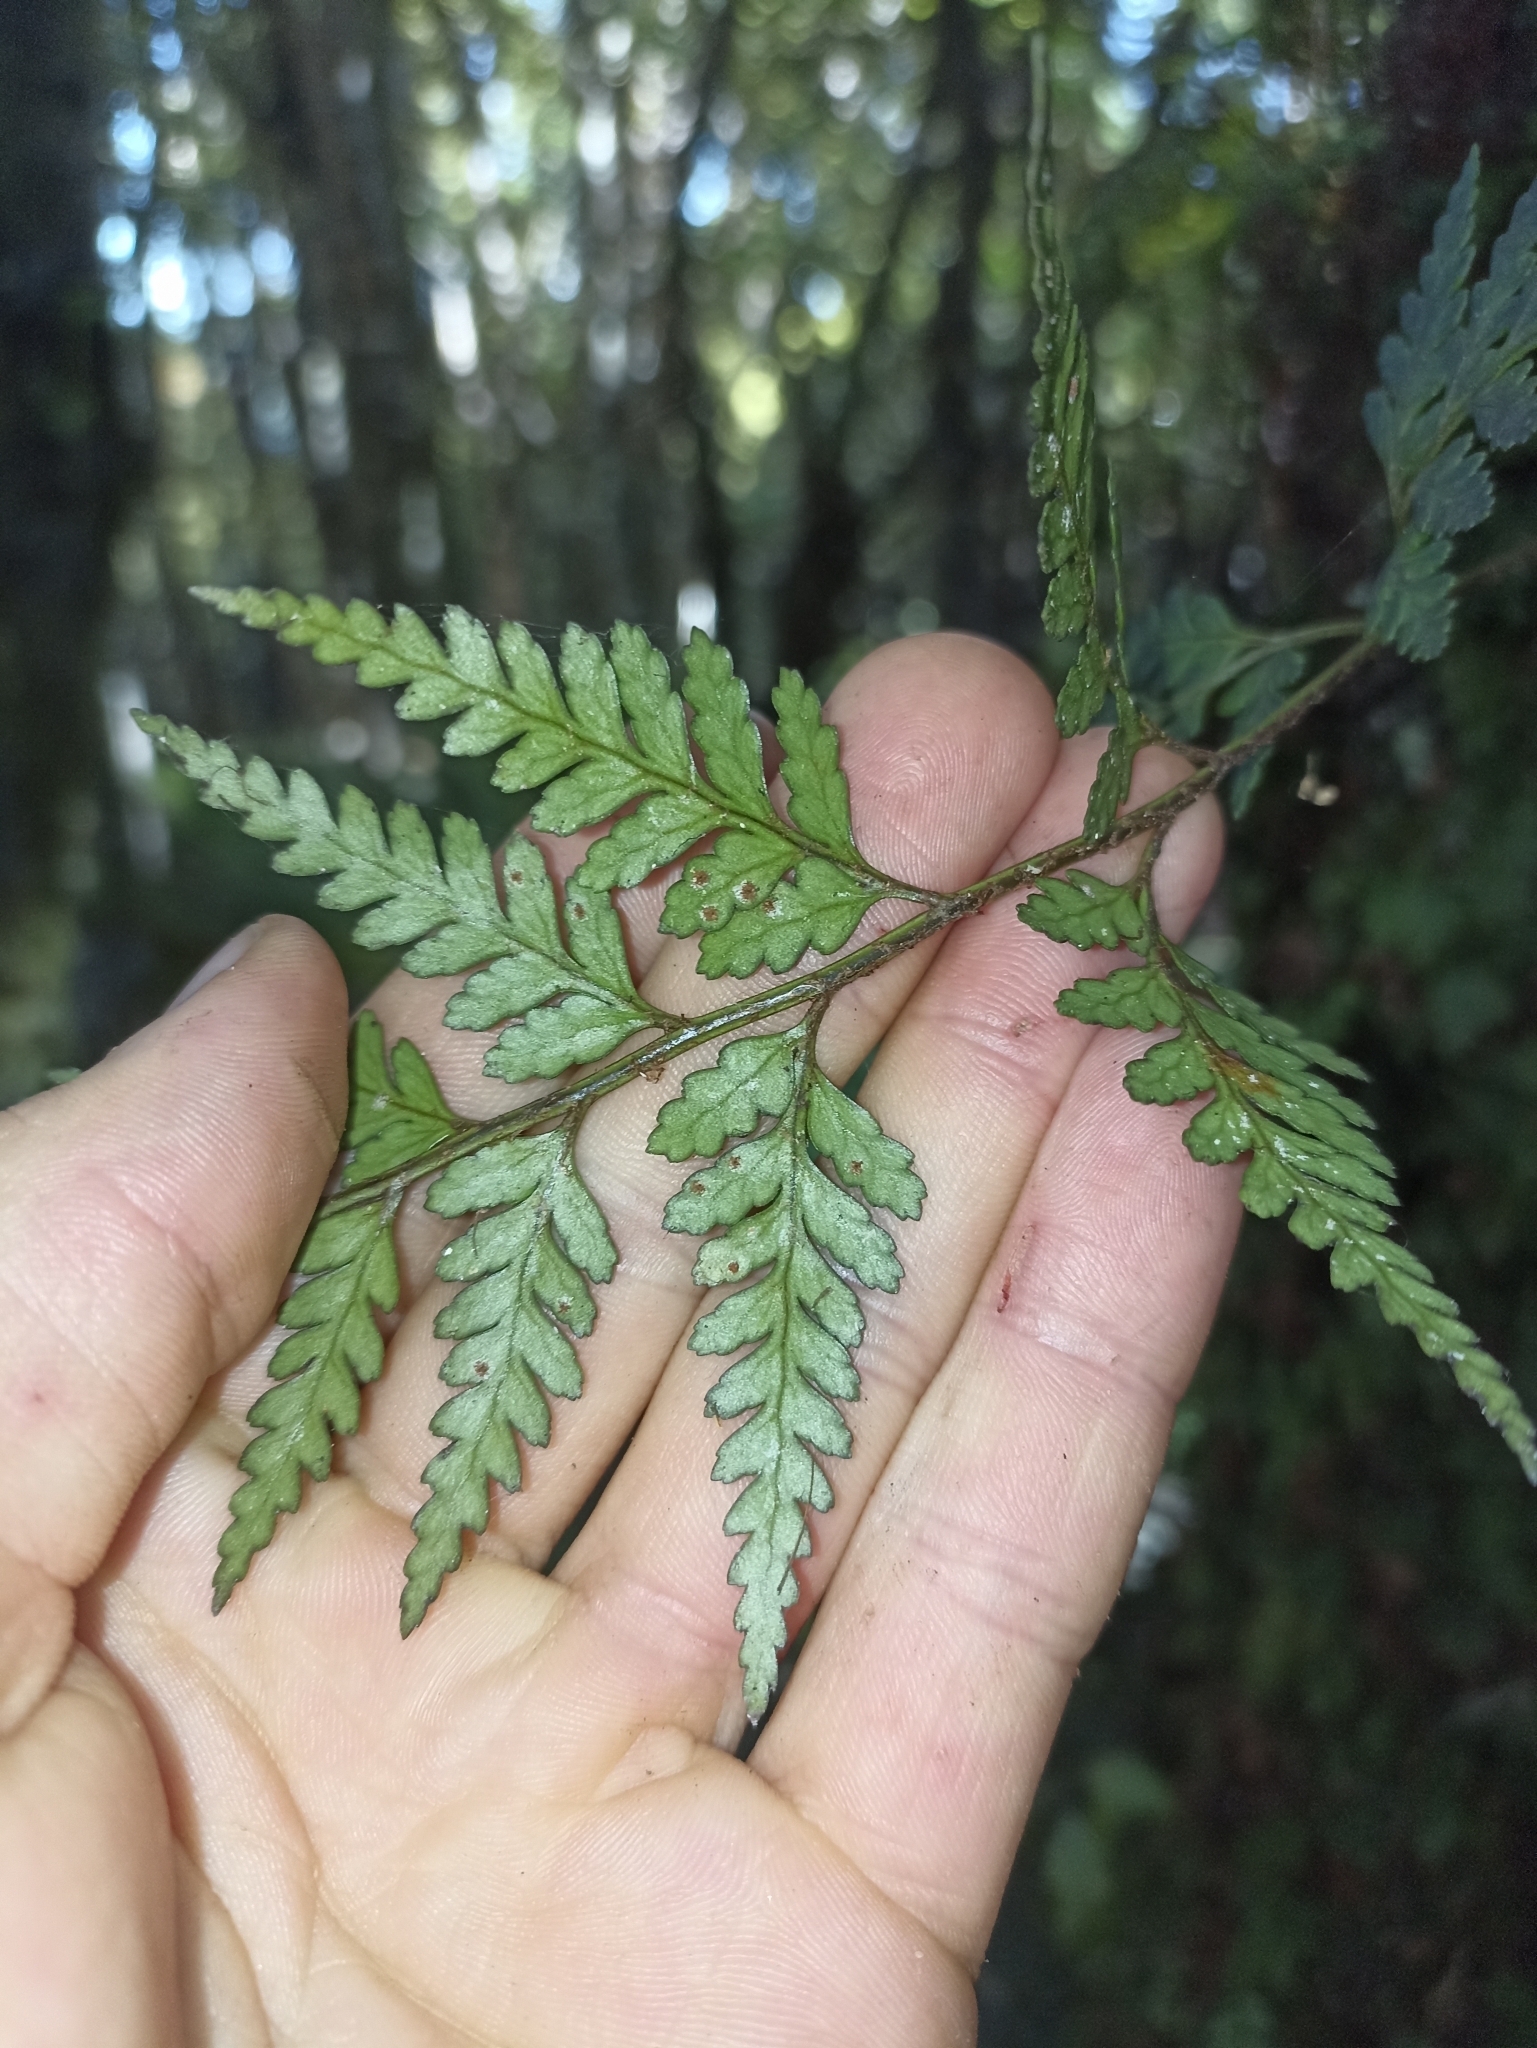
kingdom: Plantae
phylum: Tracheophyta
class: Polypodiopsida
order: Polypodiales
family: Dryopteridaceae
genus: Rumohra
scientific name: Rumohra adiantiformis
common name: Leather fern
